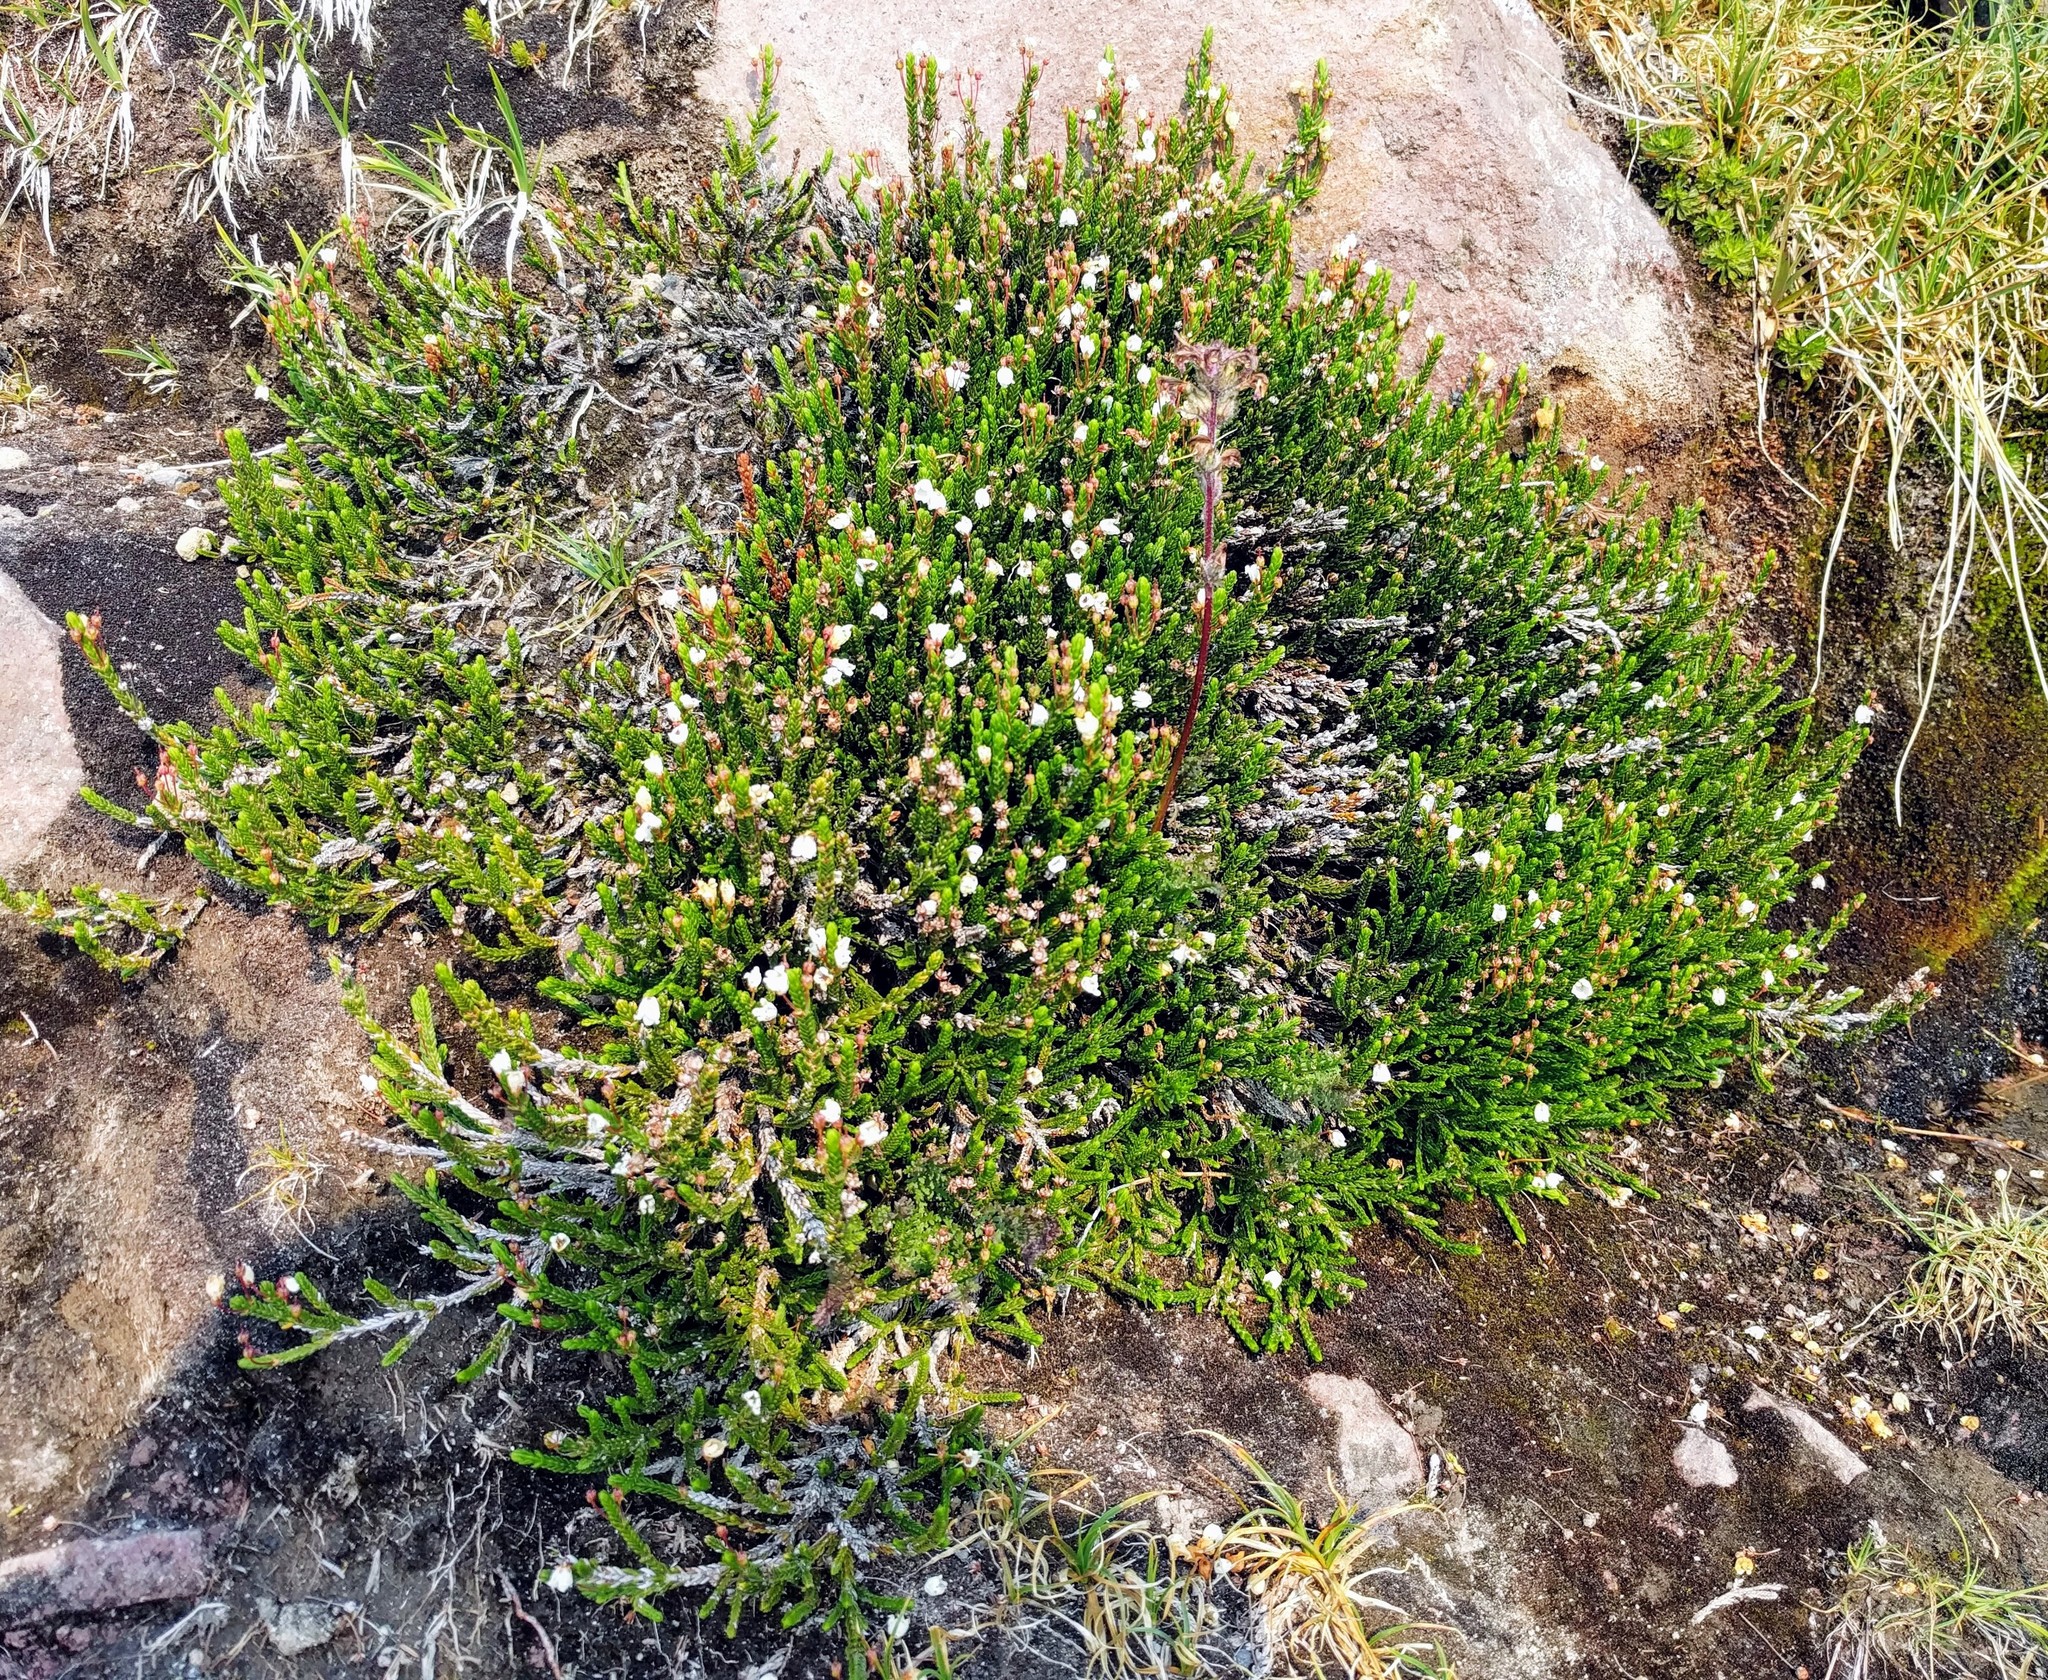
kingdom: Plantae
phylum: Tracheophyta
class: Magnoliopsida
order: Ericales
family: Ericaceae
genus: Cassiope
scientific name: Cassiope mertensiana
